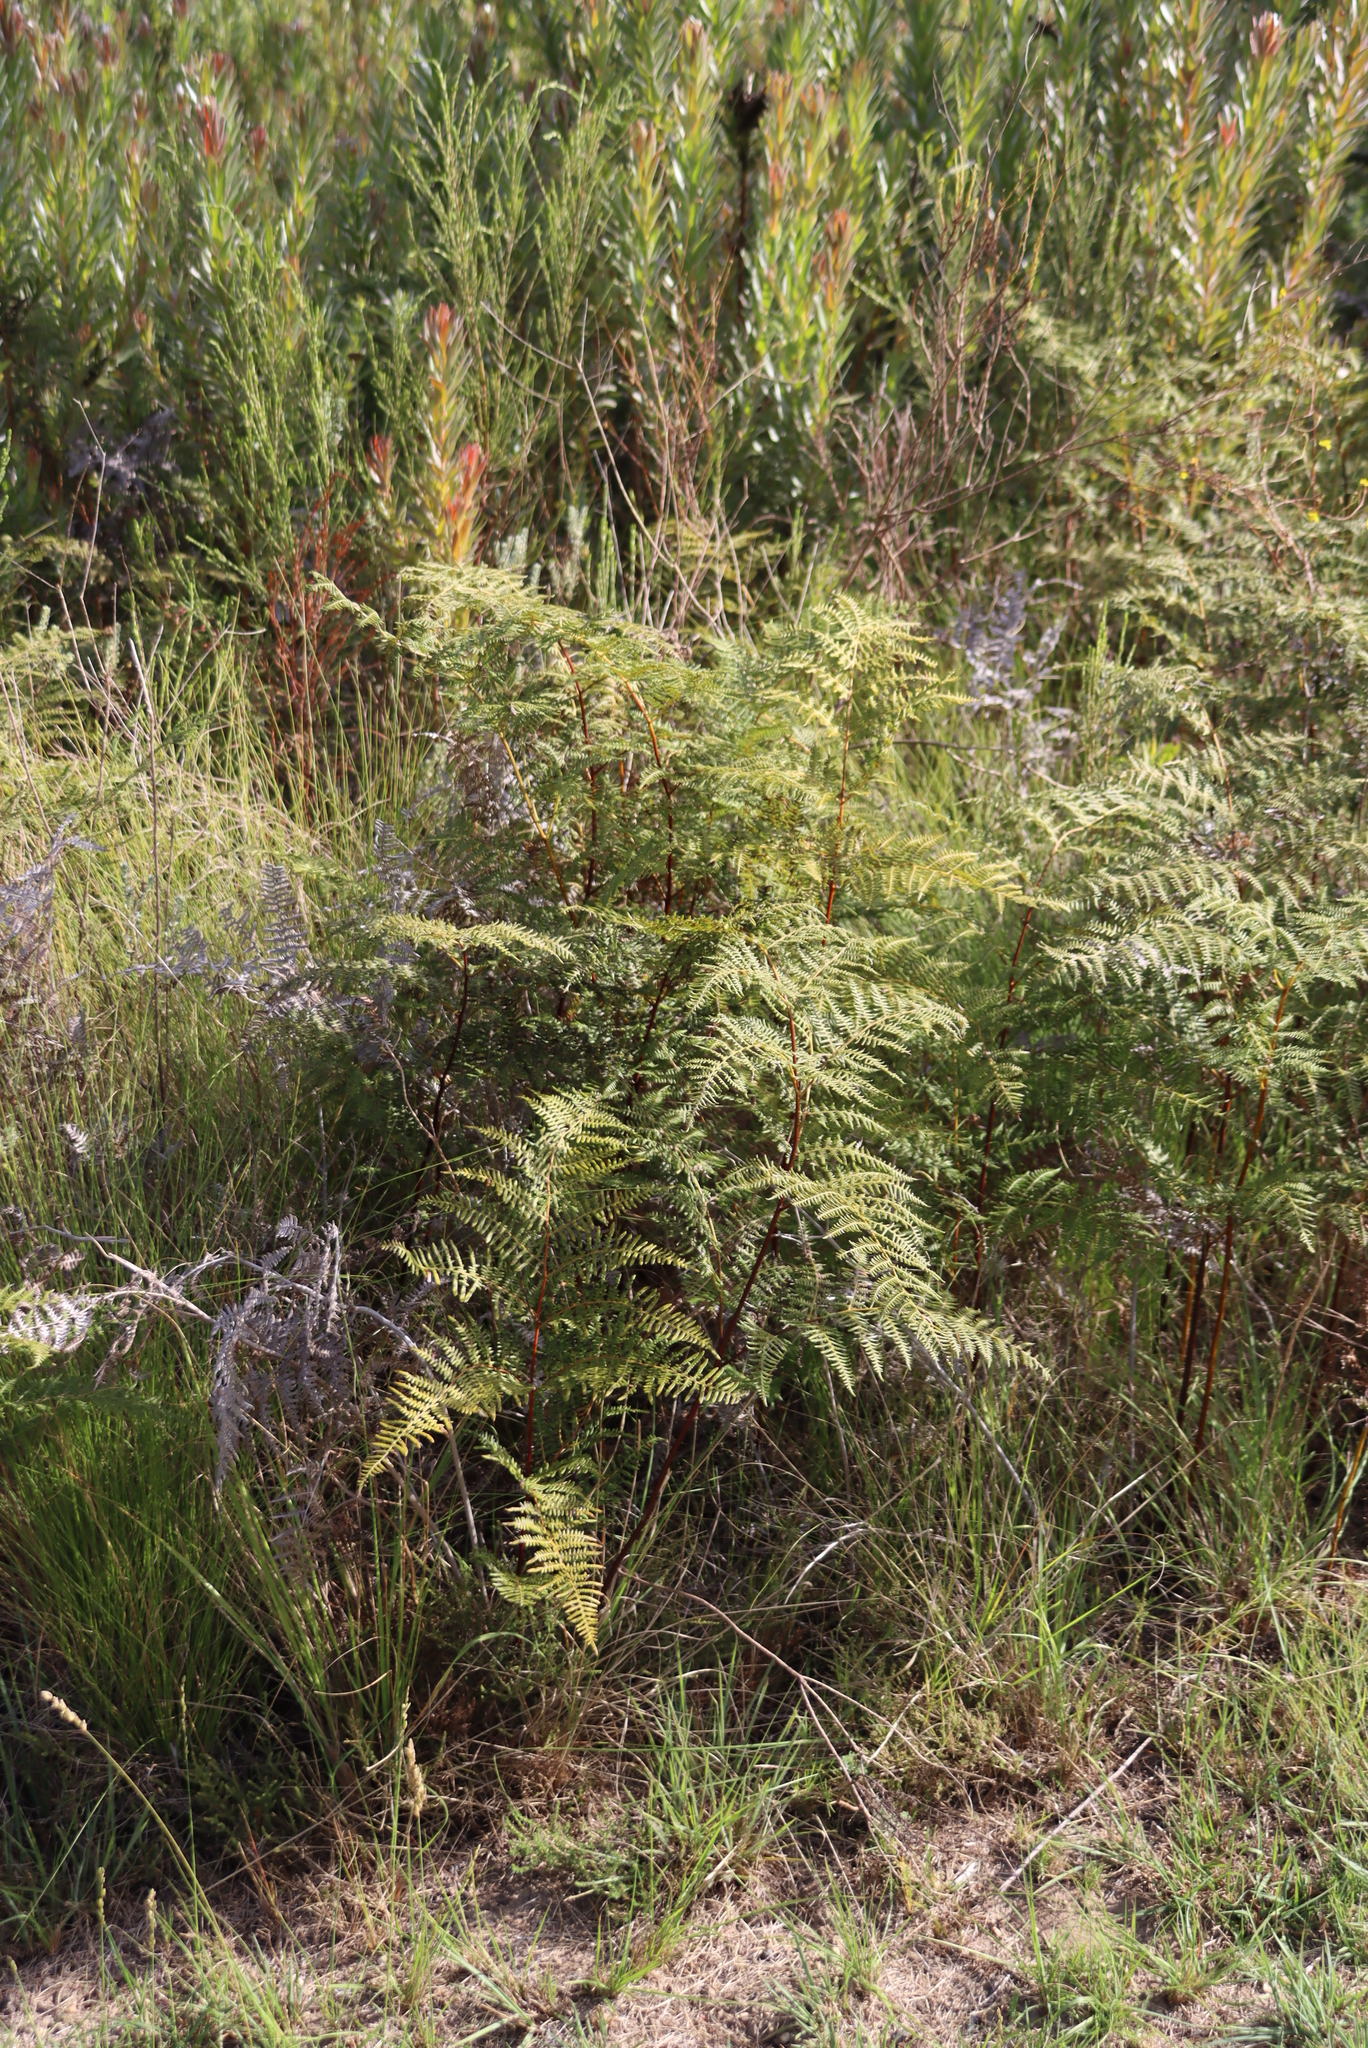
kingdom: Plantae
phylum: Tracheophyta
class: Polypodiopsida
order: Polypodiales
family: Dennstaedtiaceae
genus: Pteridium
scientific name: Pteridium aquilinum
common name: Bracken
